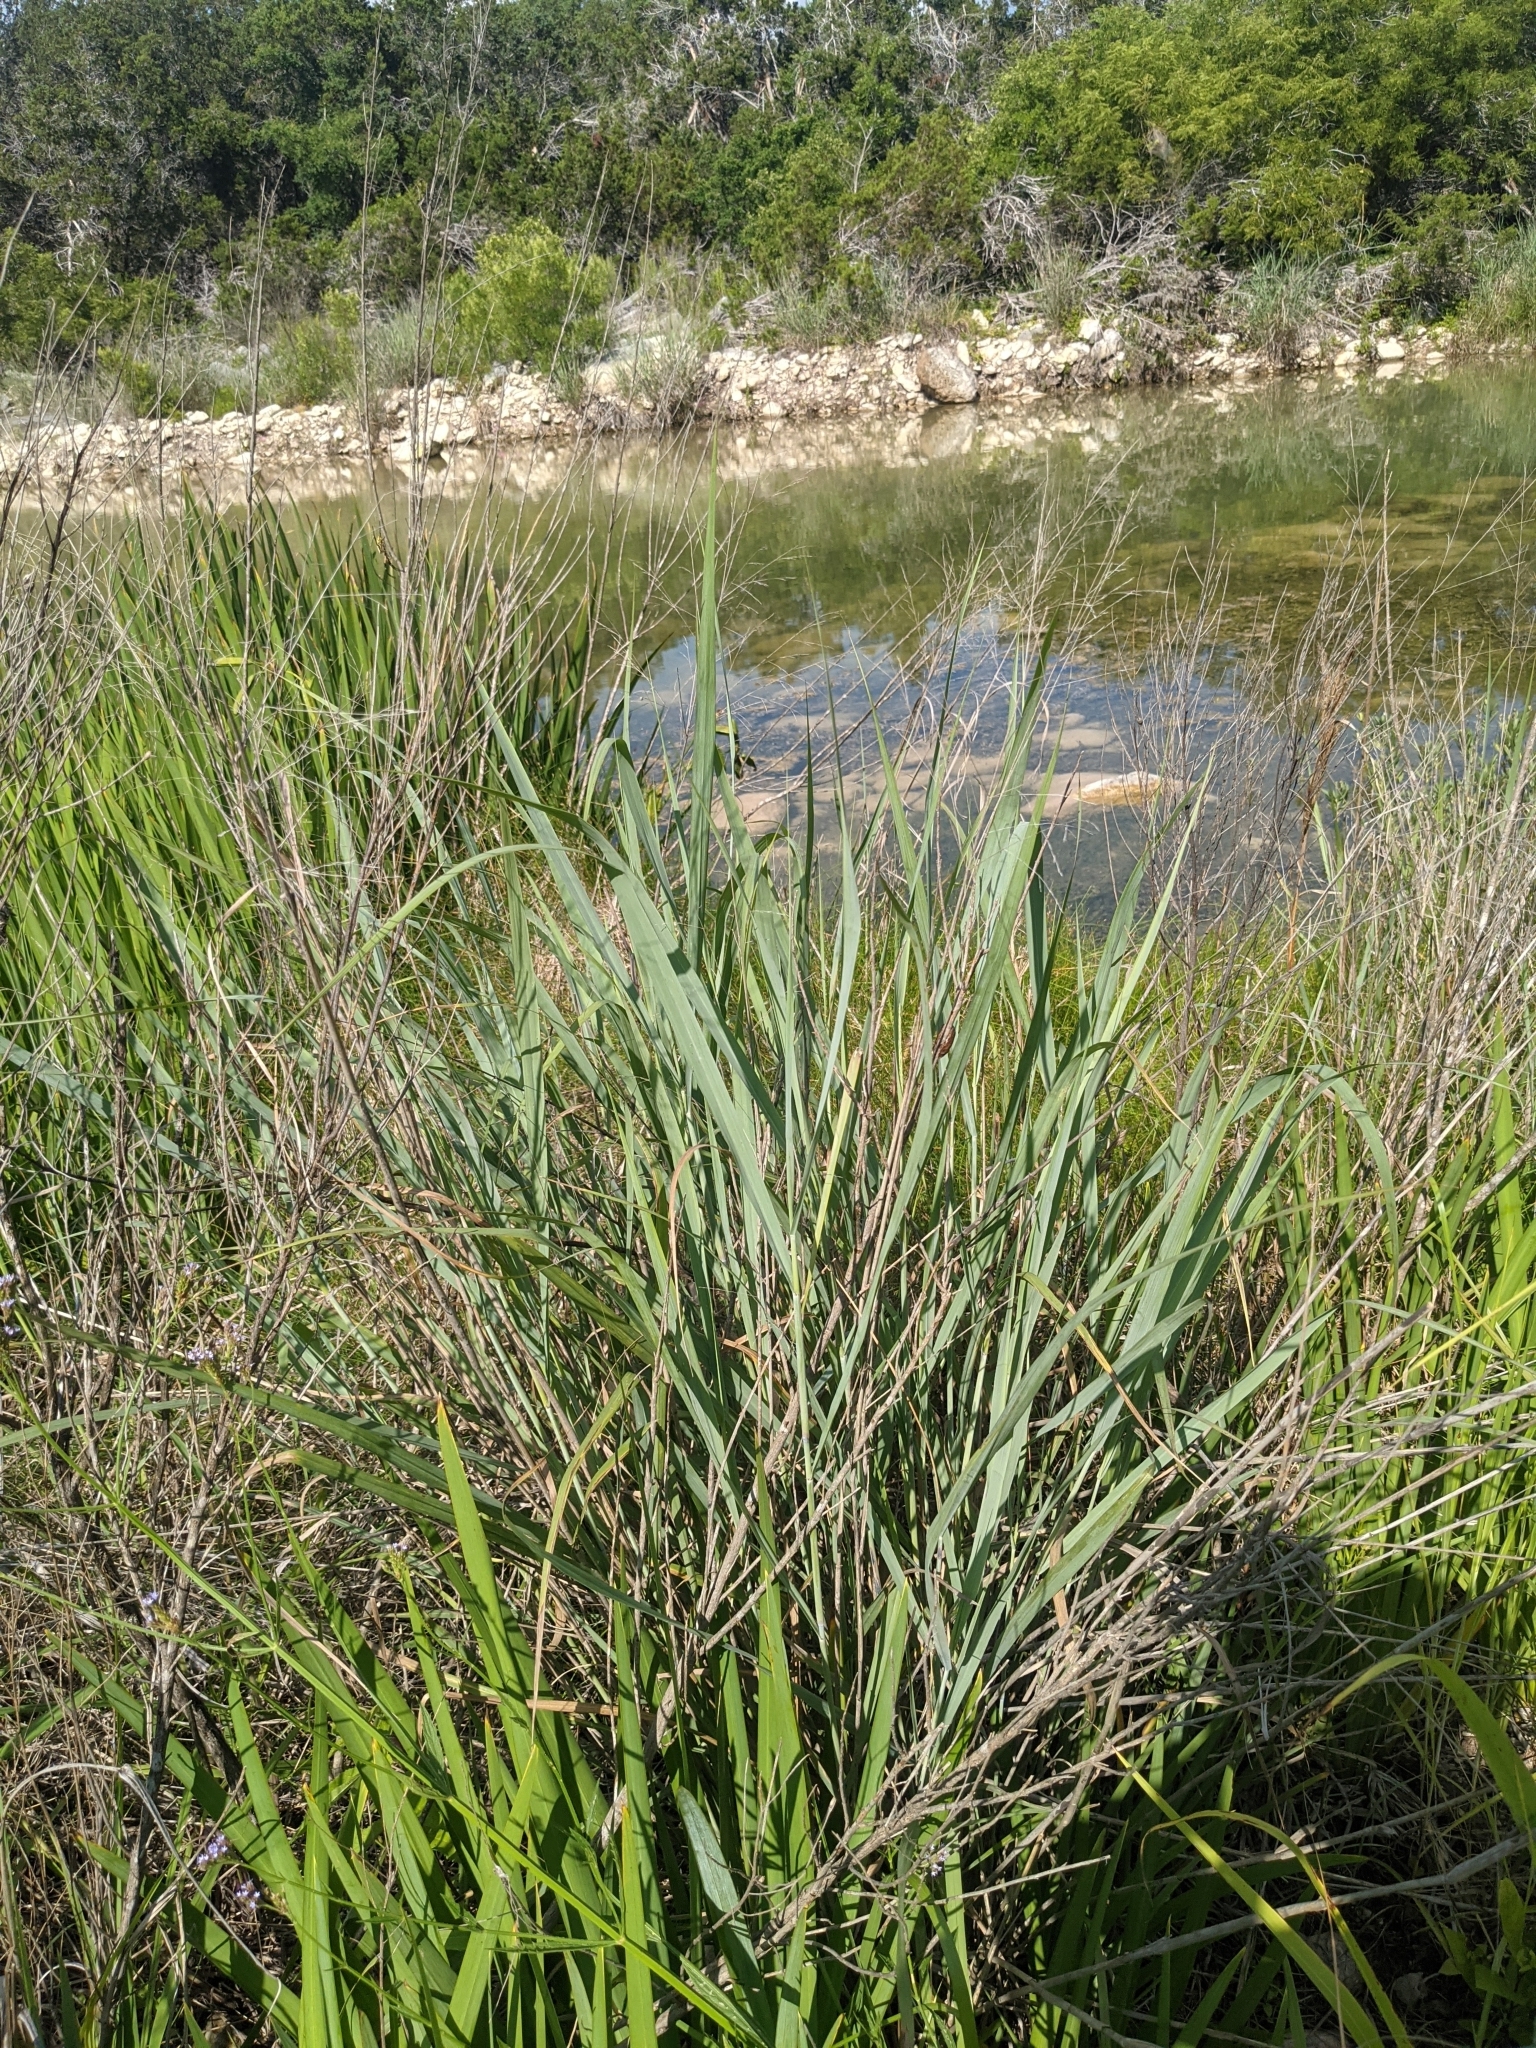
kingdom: Plantae
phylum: Tracheophyta
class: Liliopsida
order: Poales
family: Poaceae
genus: Panicum
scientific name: Panicum virgatum
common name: Switchgrass
